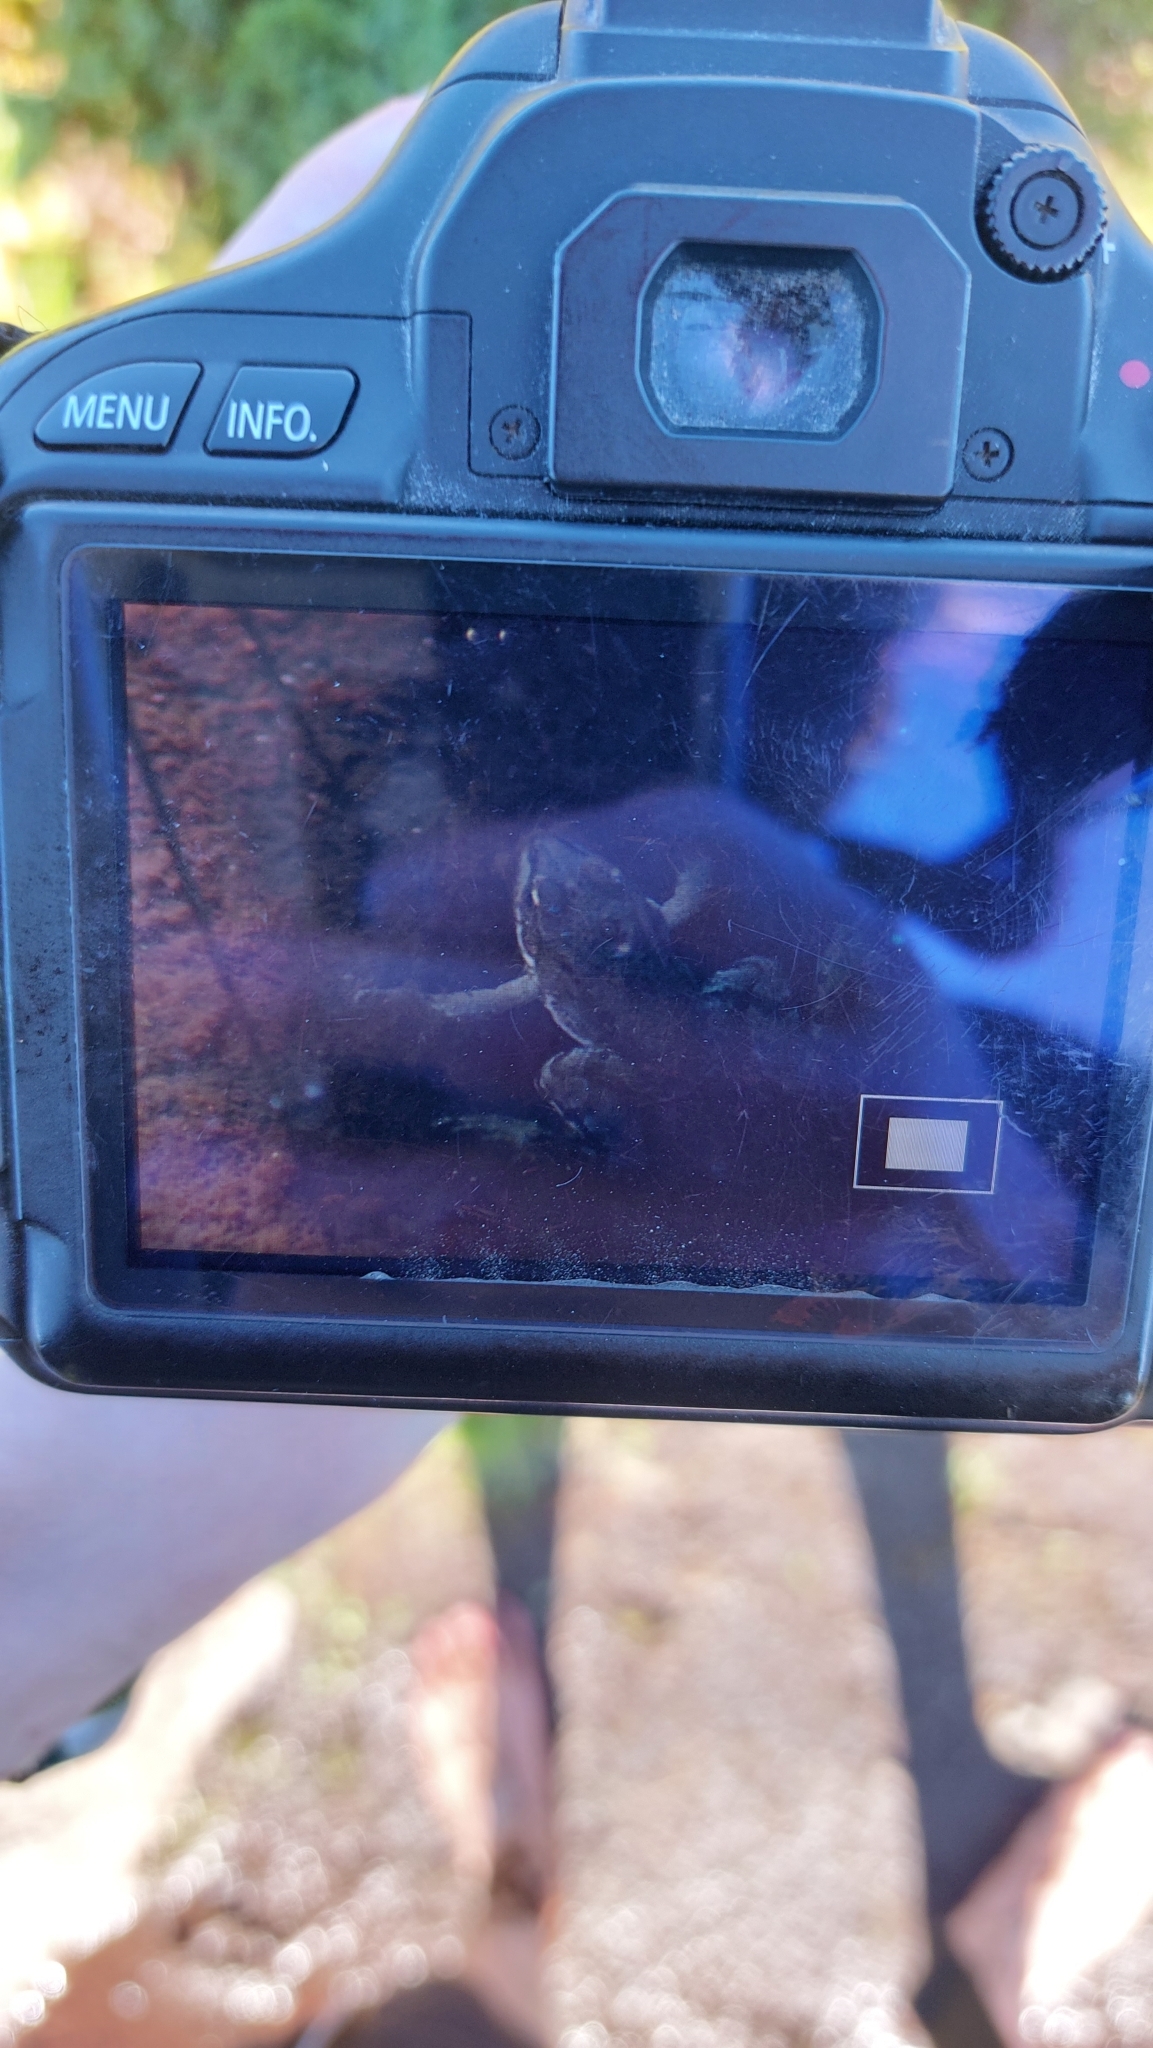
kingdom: Animalia
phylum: Chordata
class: Amphibia
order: Anura
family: Ranidae
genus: Pelophylax
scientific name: Pelophylax perezi
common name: Perez's frog
